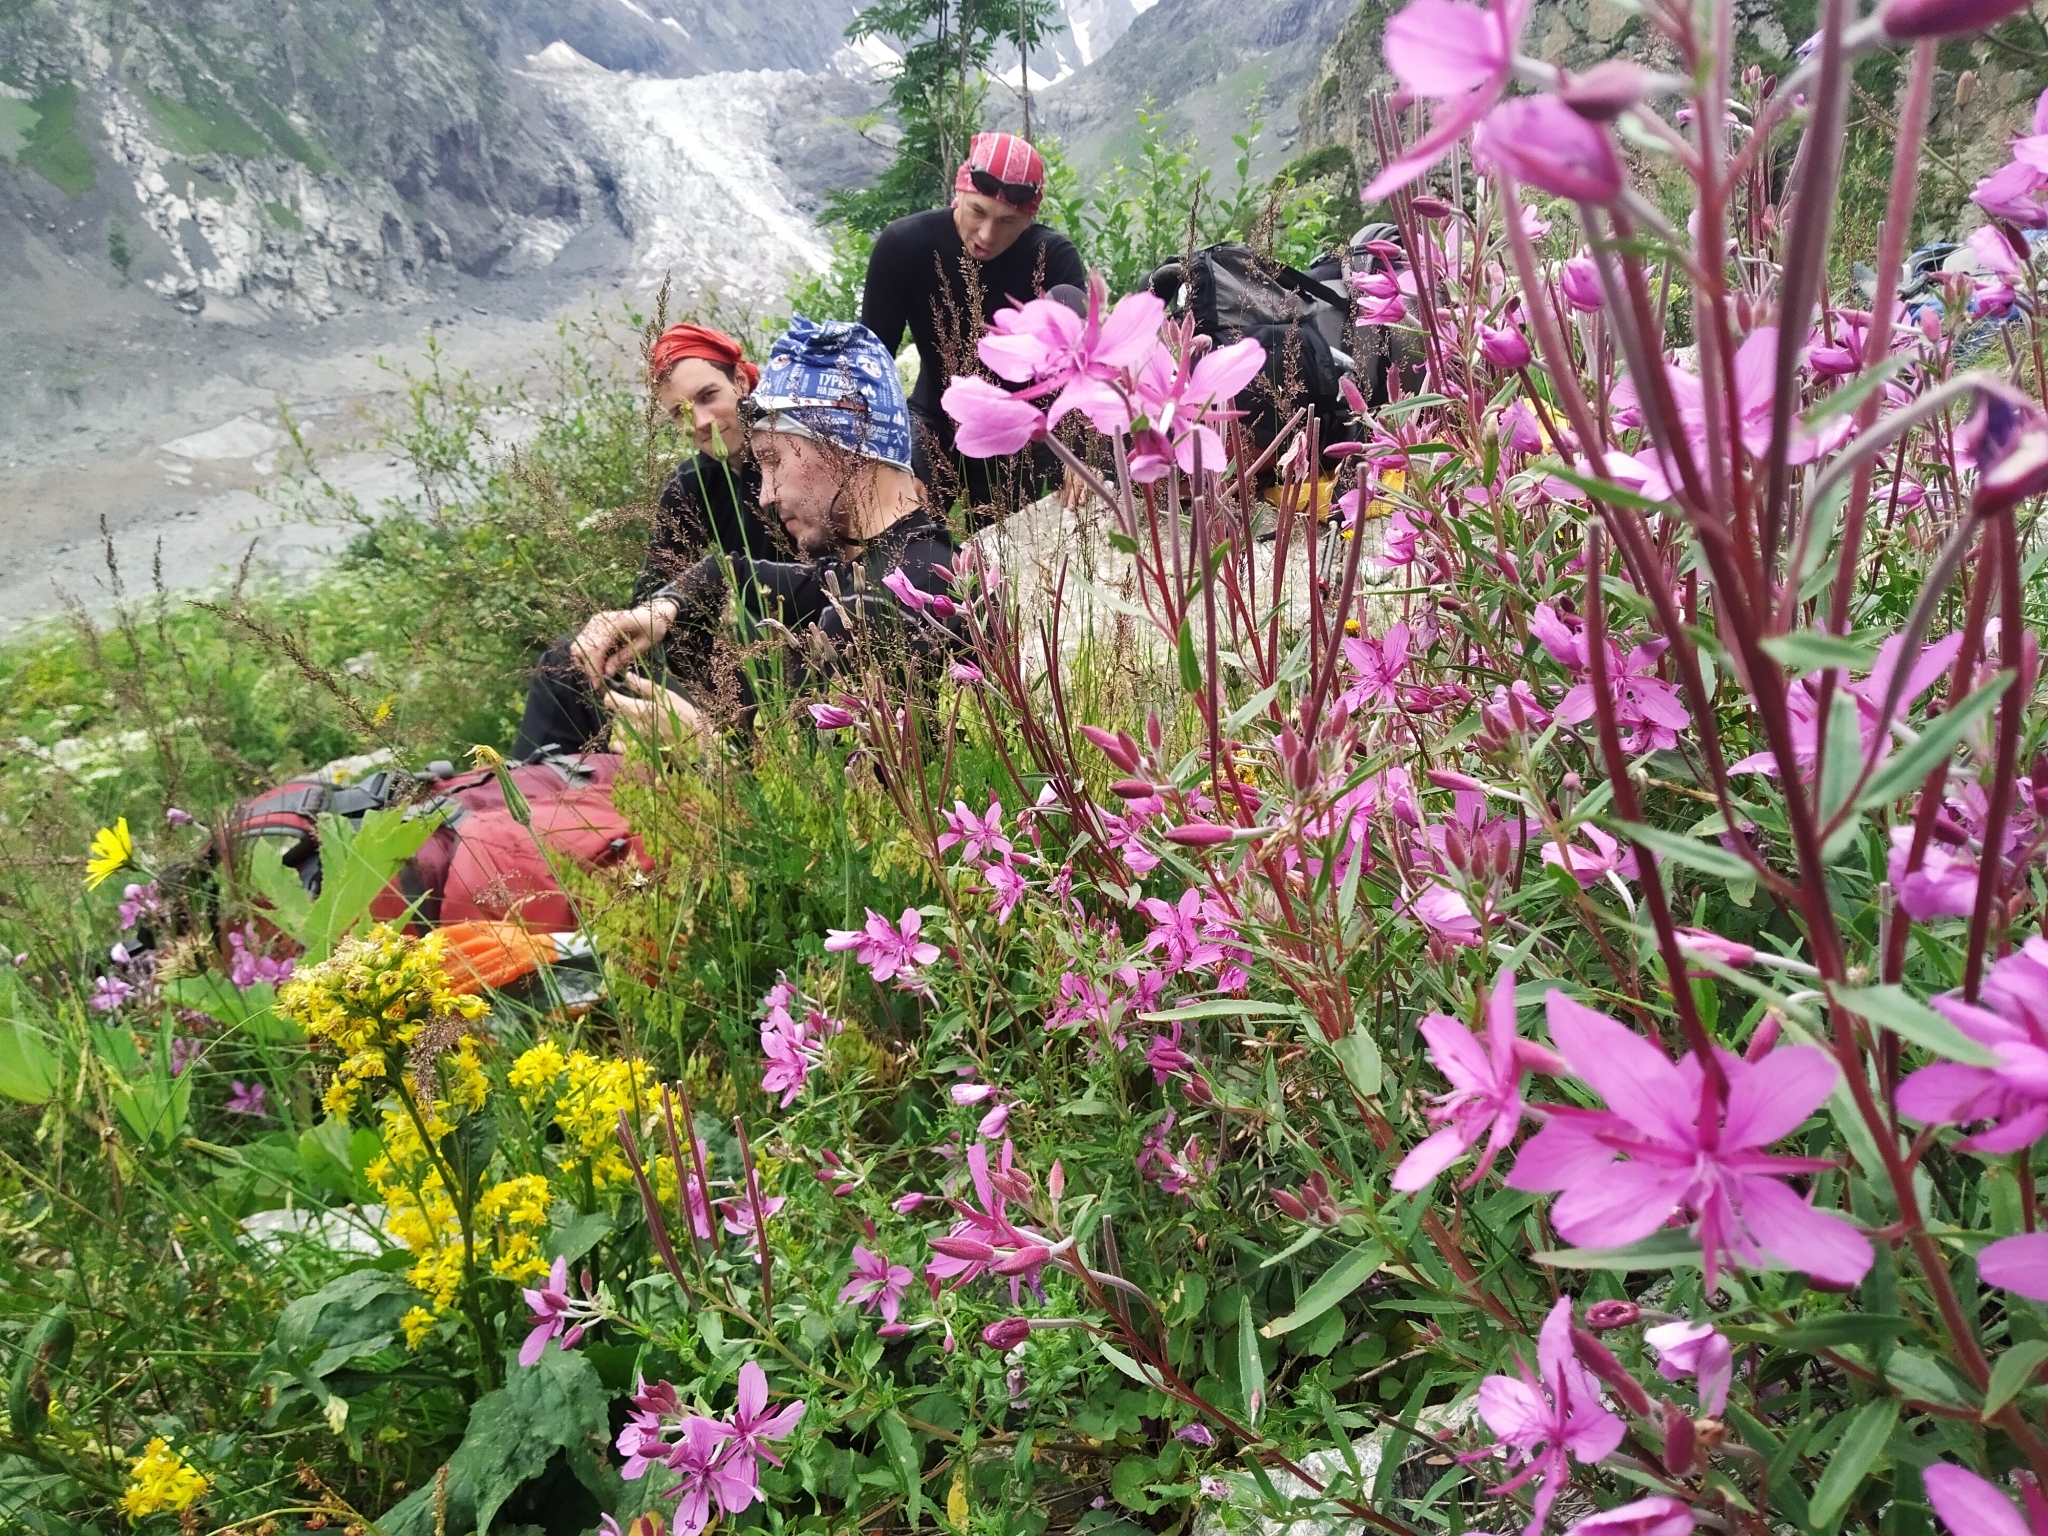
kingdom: Plantae
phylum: Tracheophyta
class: Magnoliopsida
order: Myrtales
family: Onagraceae
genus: Chamaenerion
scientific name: Chamaenerion colchicum
